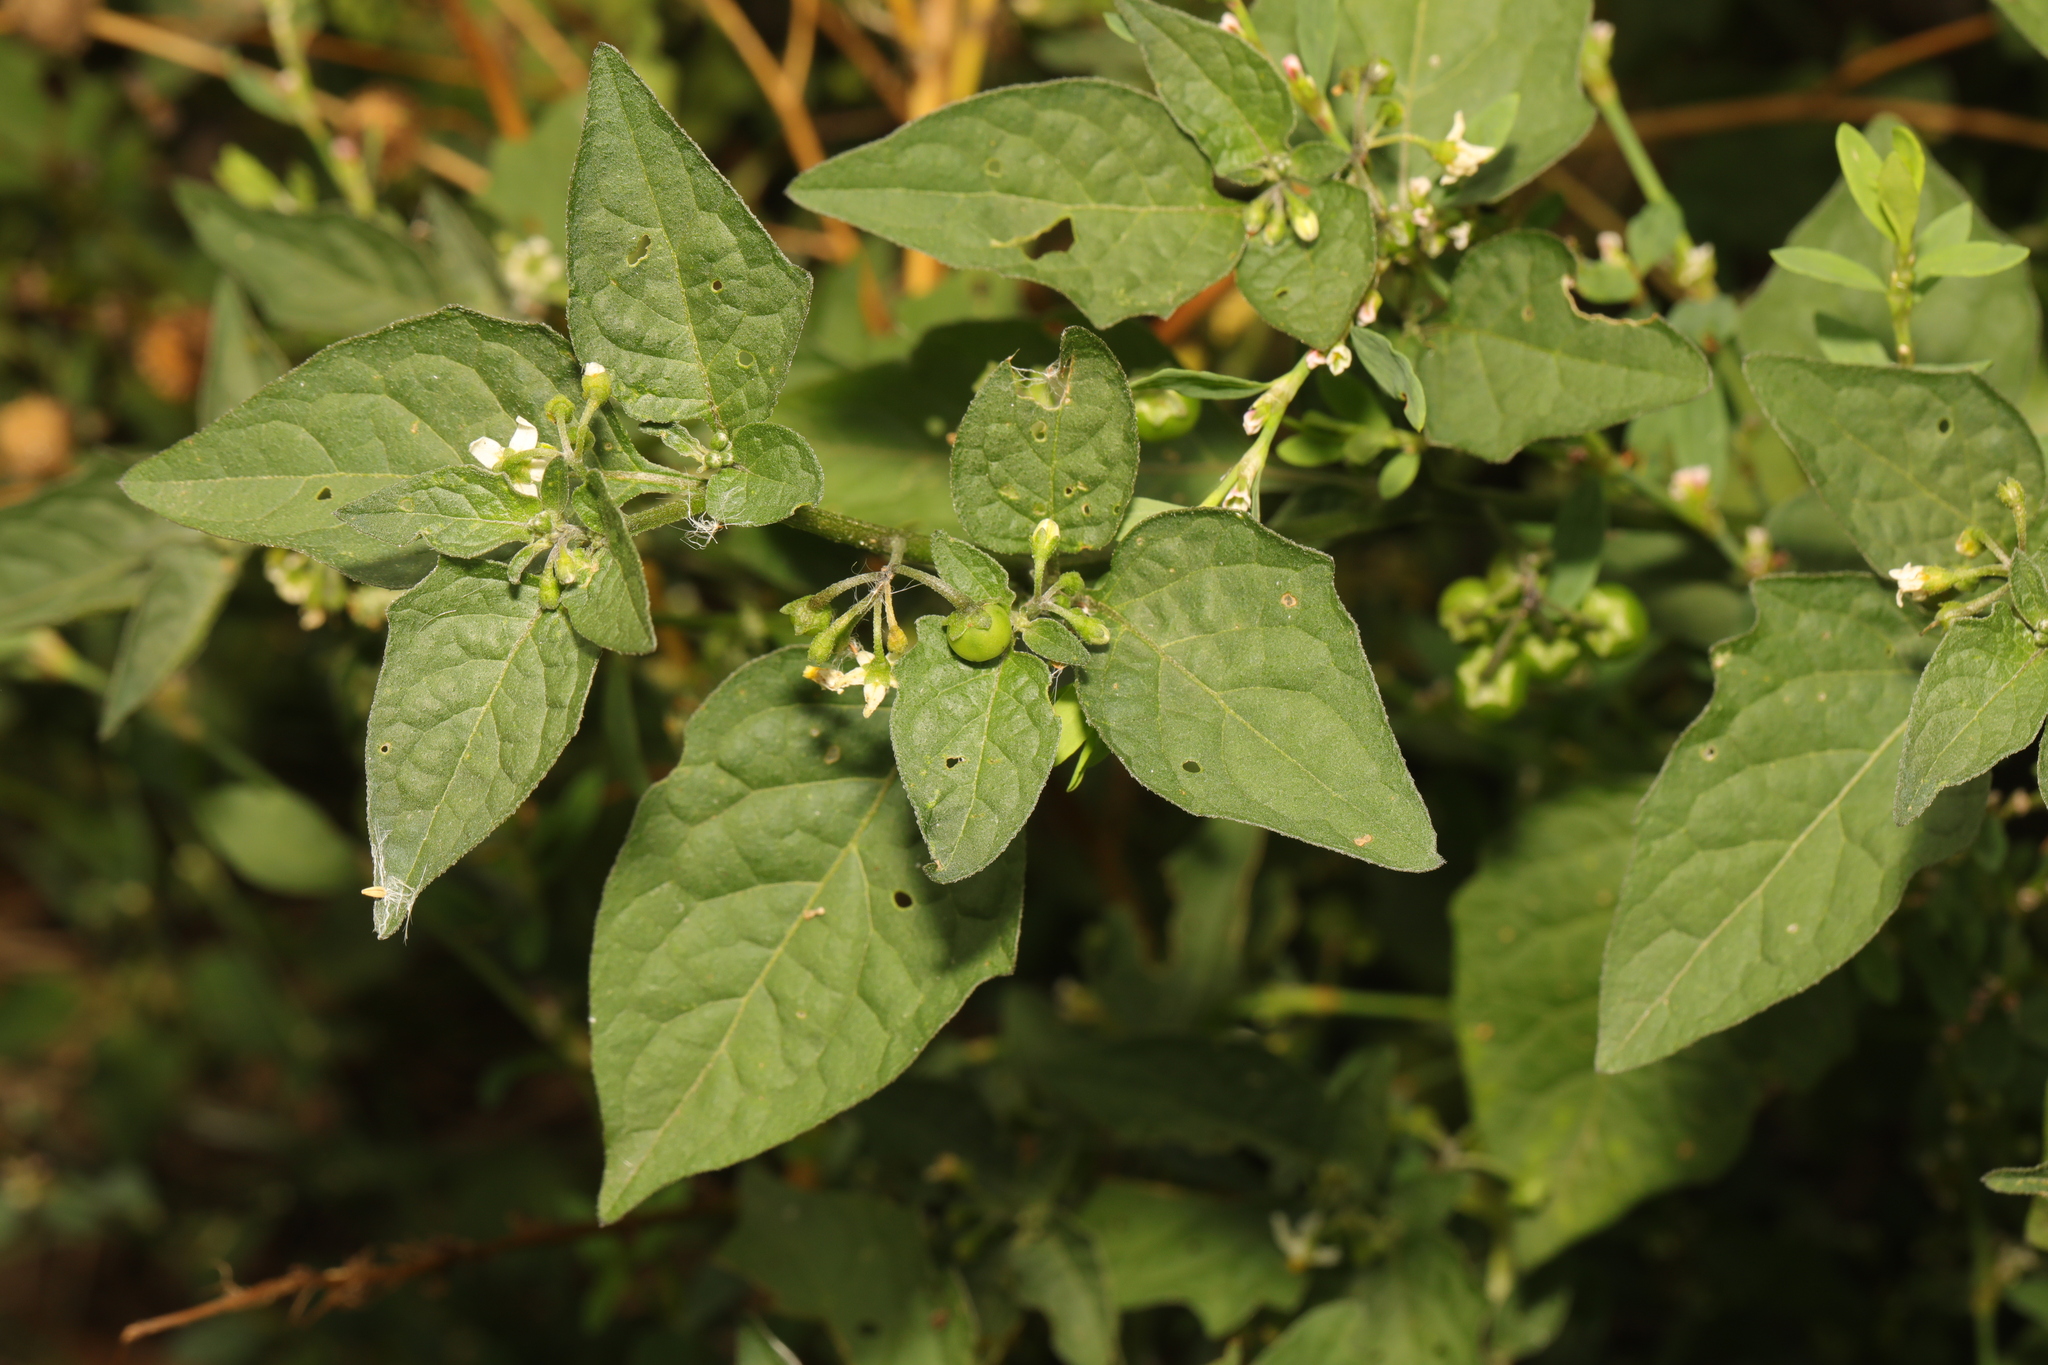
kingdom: Plantae
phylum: Tracheophyta
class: Magnoliopsida
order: Solanales
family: Solanaceae
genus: Solanum
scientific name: Solanum nigrum
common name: Black nightshade
